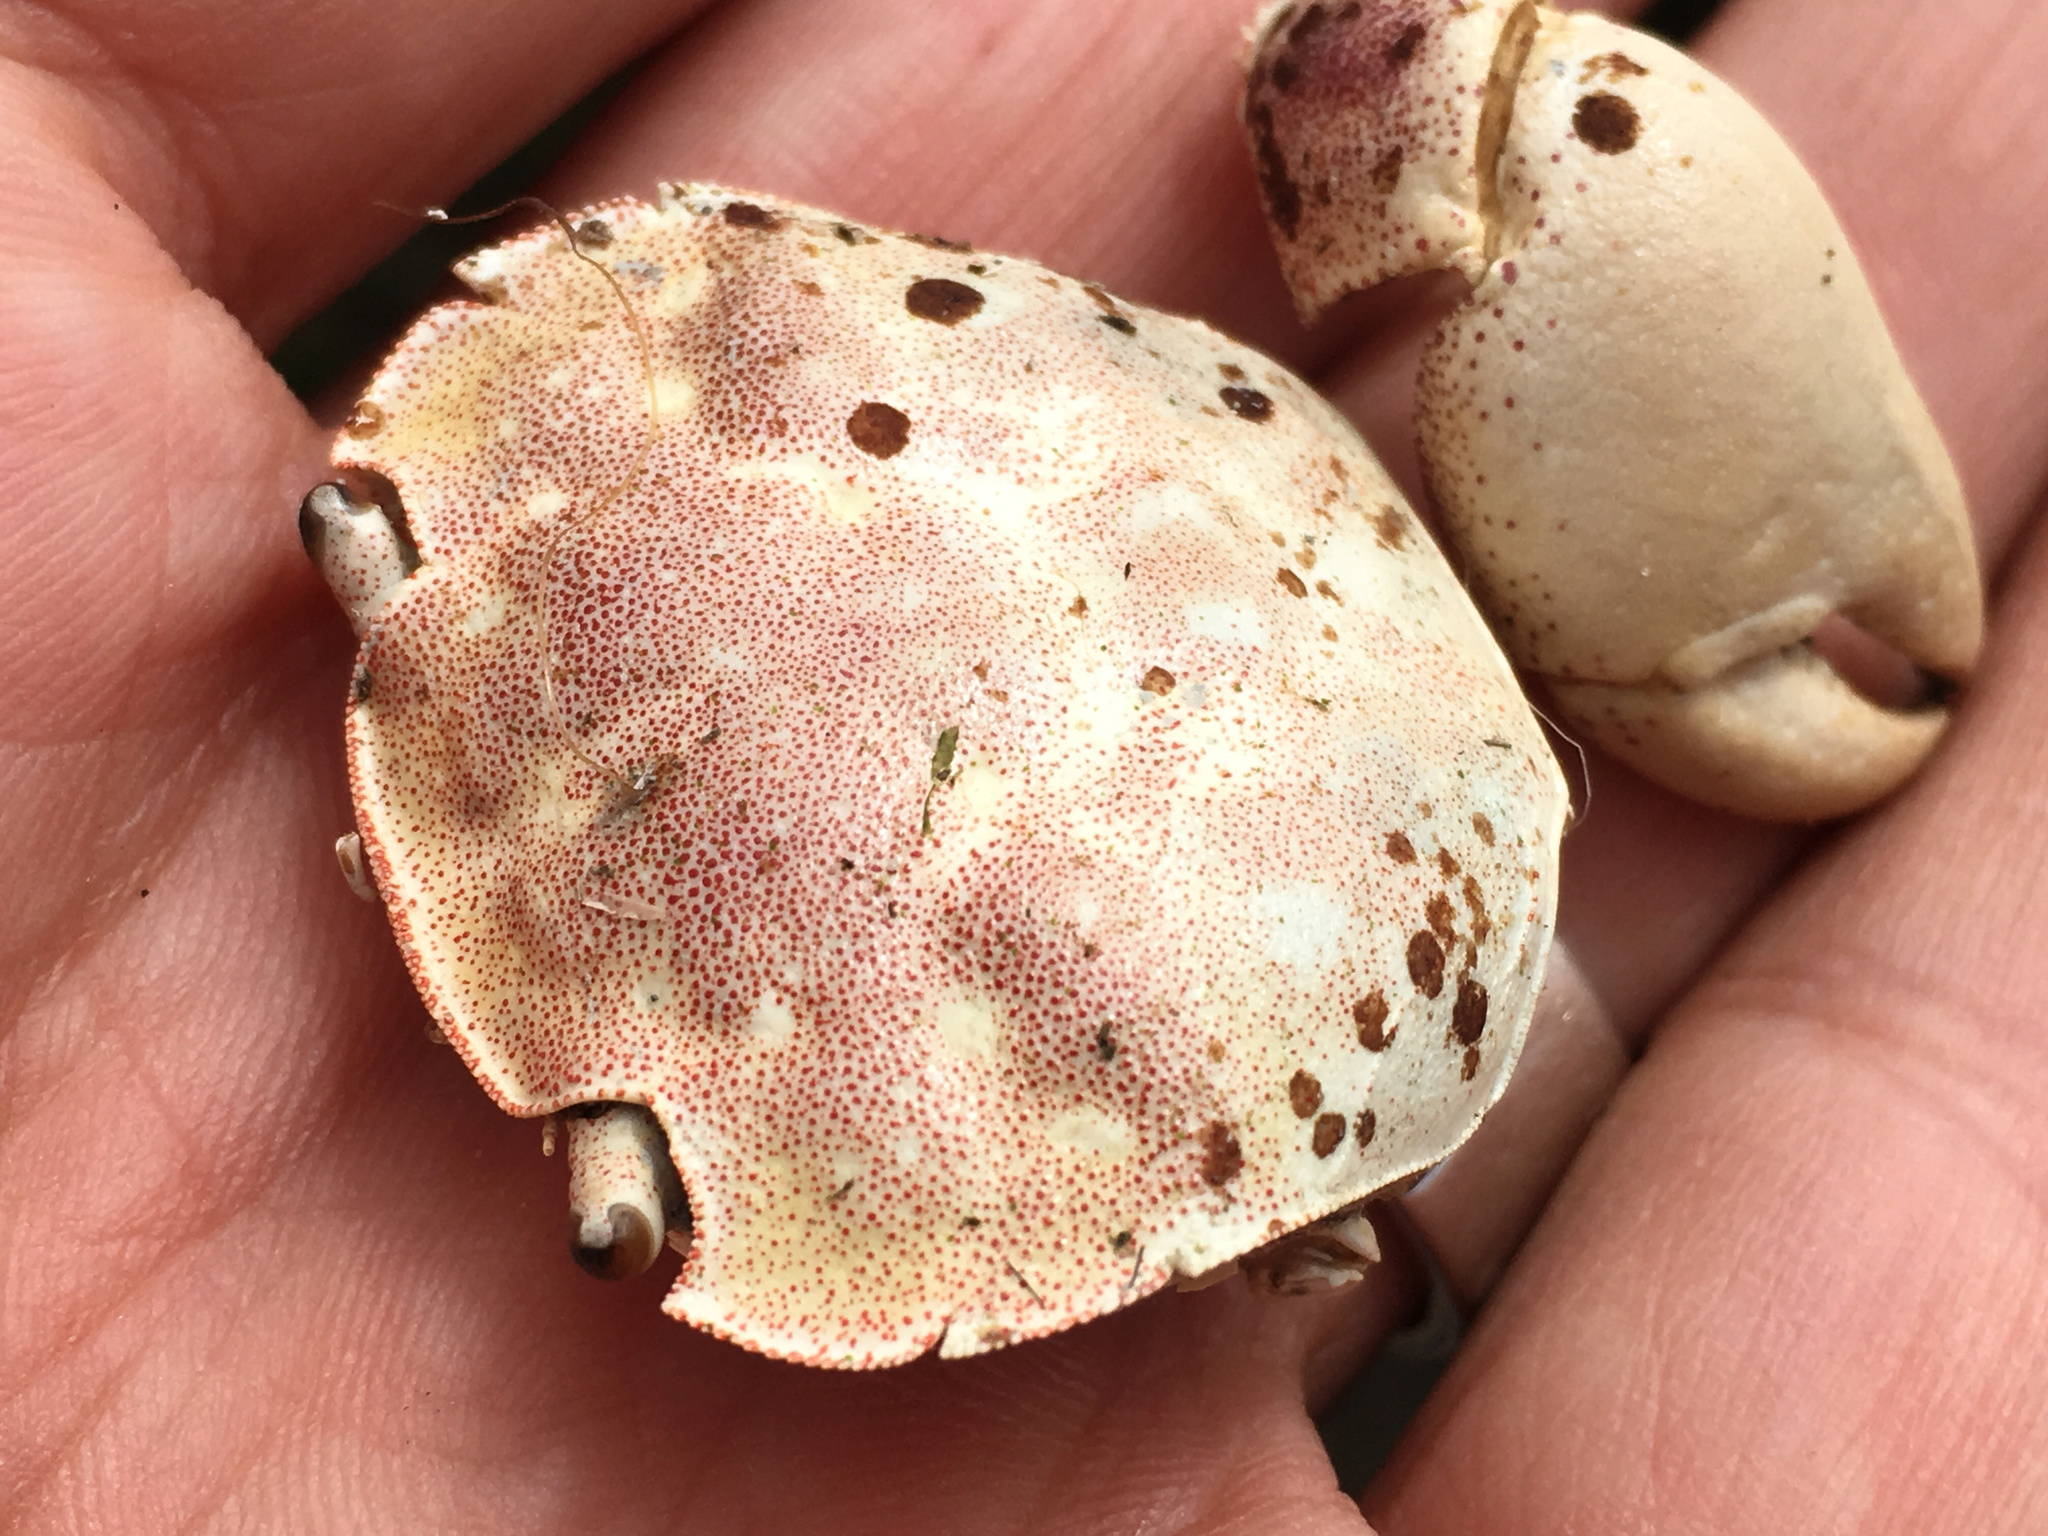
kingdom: Animalia
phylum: Arthropoda
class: Malacostraca
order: Decapoda
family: Varunidae
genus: Hemigrapsus
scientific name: Hemigrapsus crenulatus
